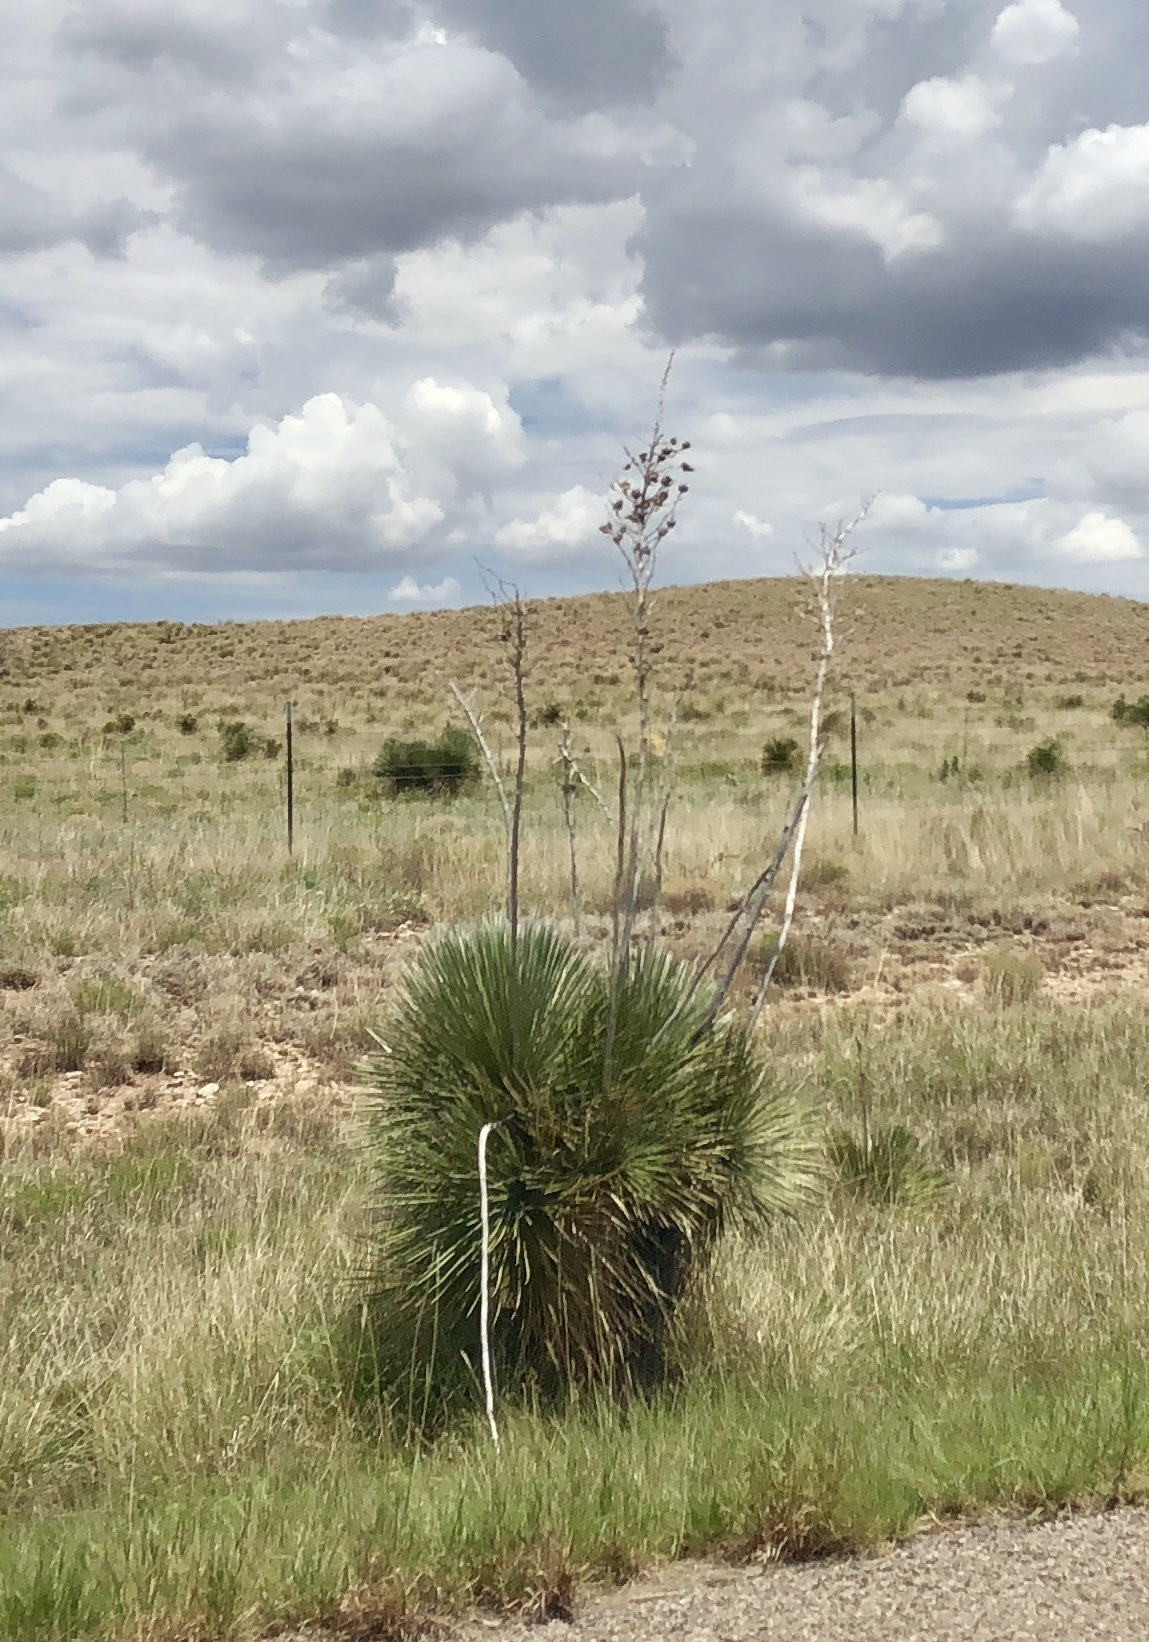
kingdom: Plantae
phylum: Tracheophyta
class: Liliopsida
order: Asparagales
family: Asparagaceae
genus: Yucca
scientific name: Yucca elata
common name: Palmella
